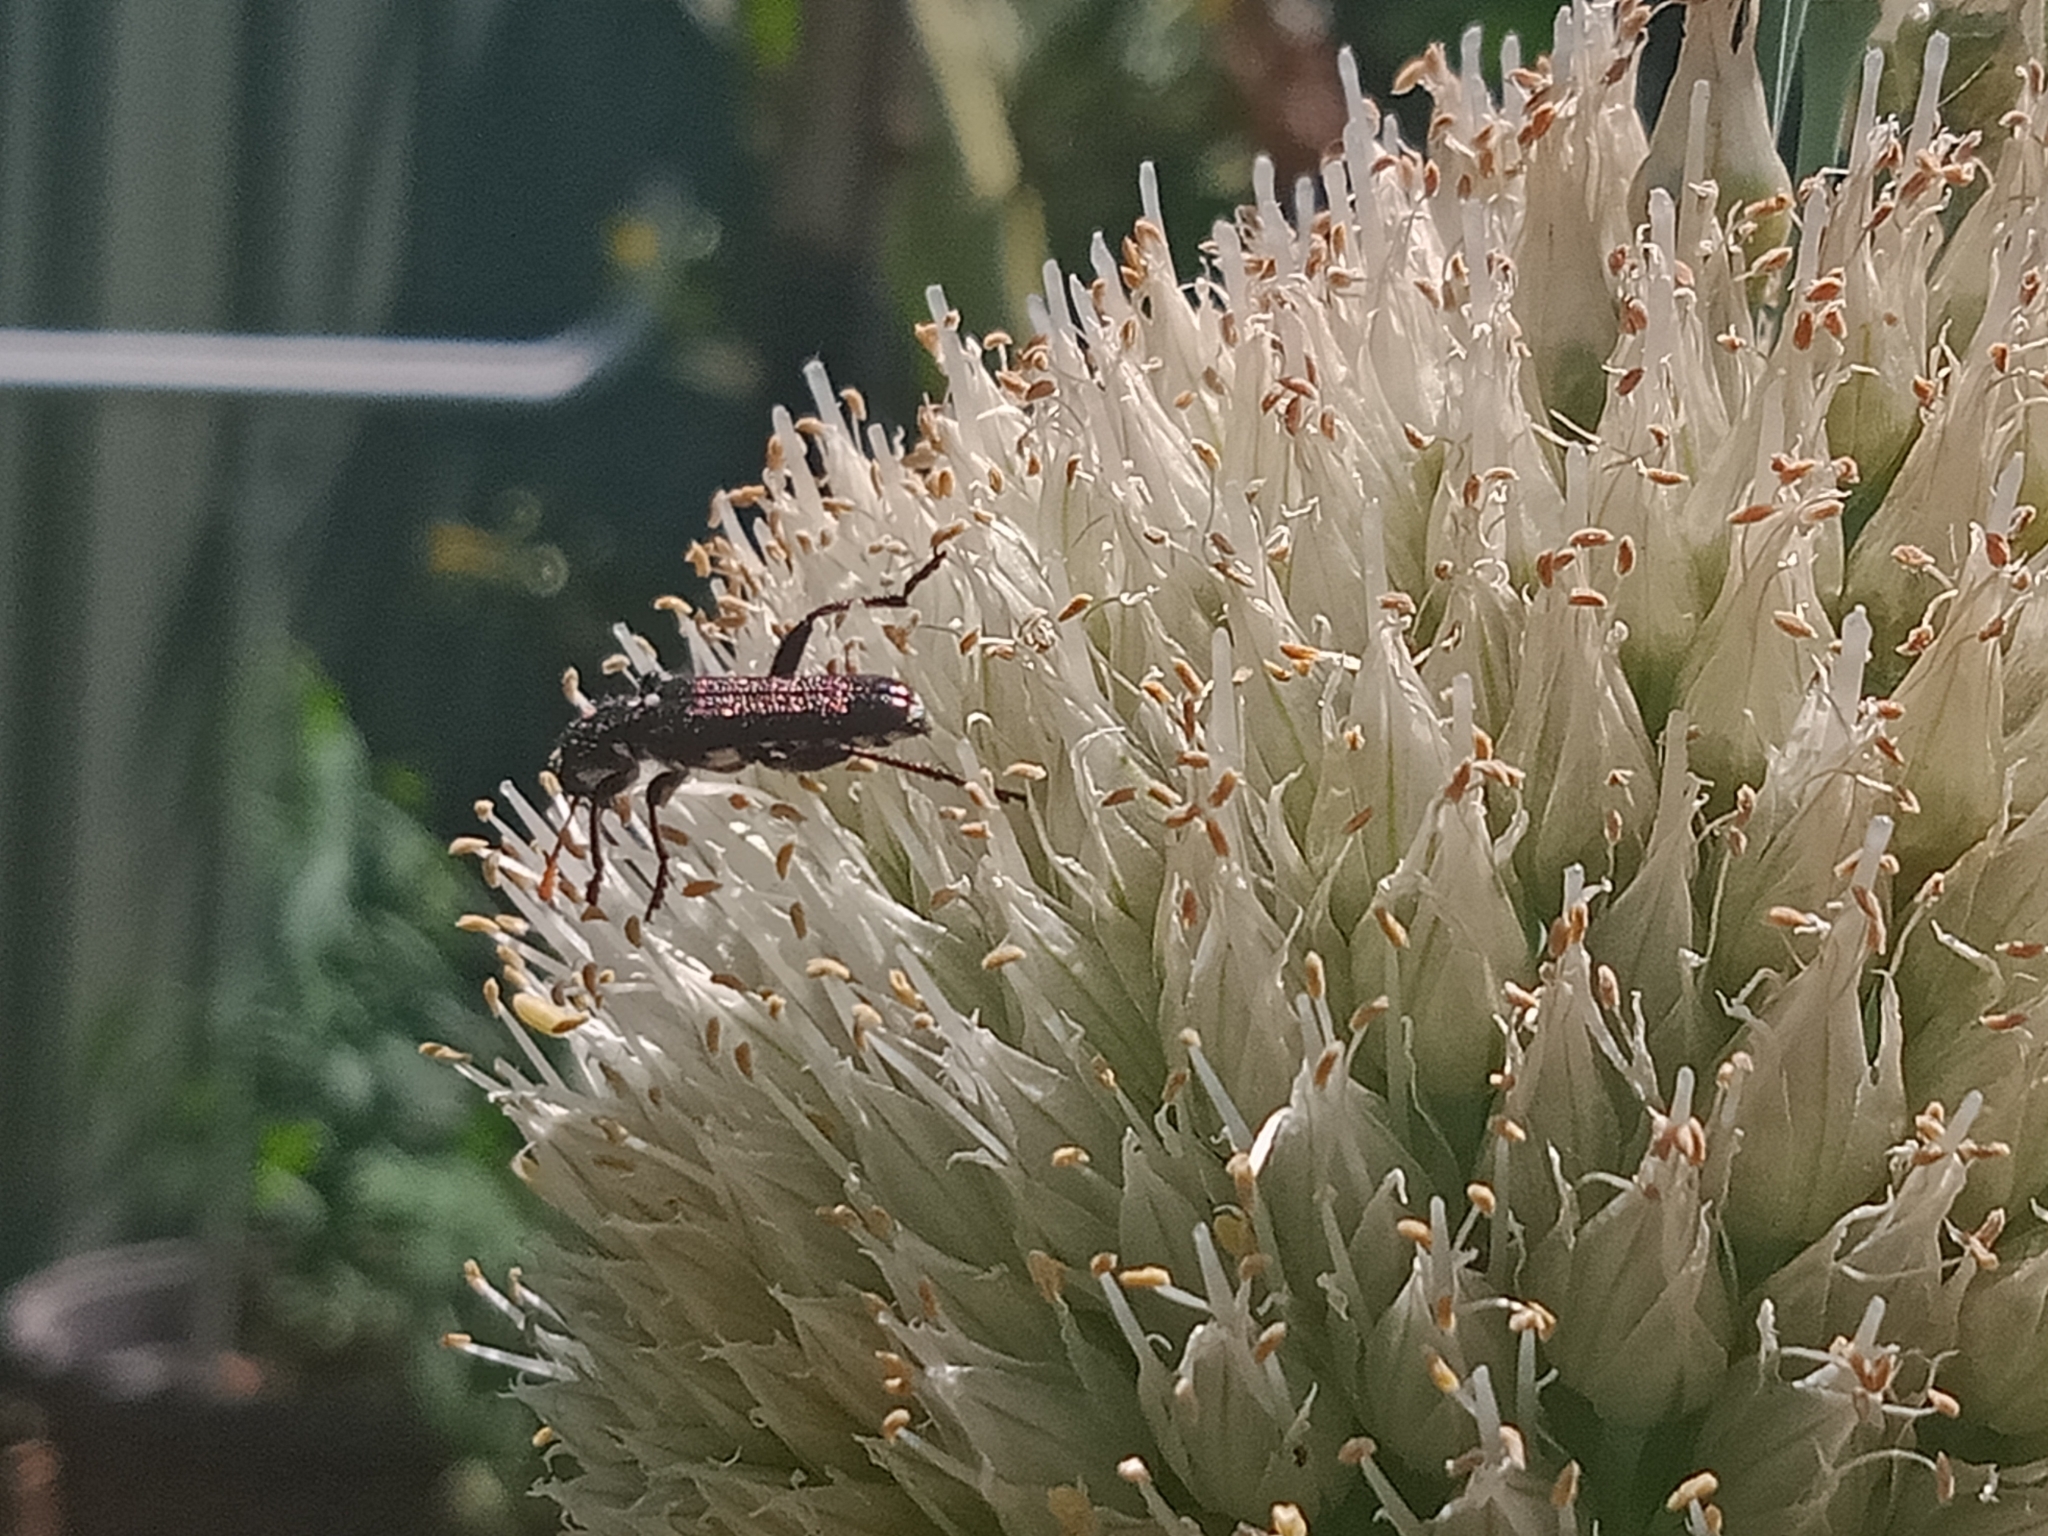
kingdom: Animalia
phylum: Arthropoda
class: Insecta
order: Coleoptera
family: Cleridae
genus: Eleale
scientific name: Eleale
